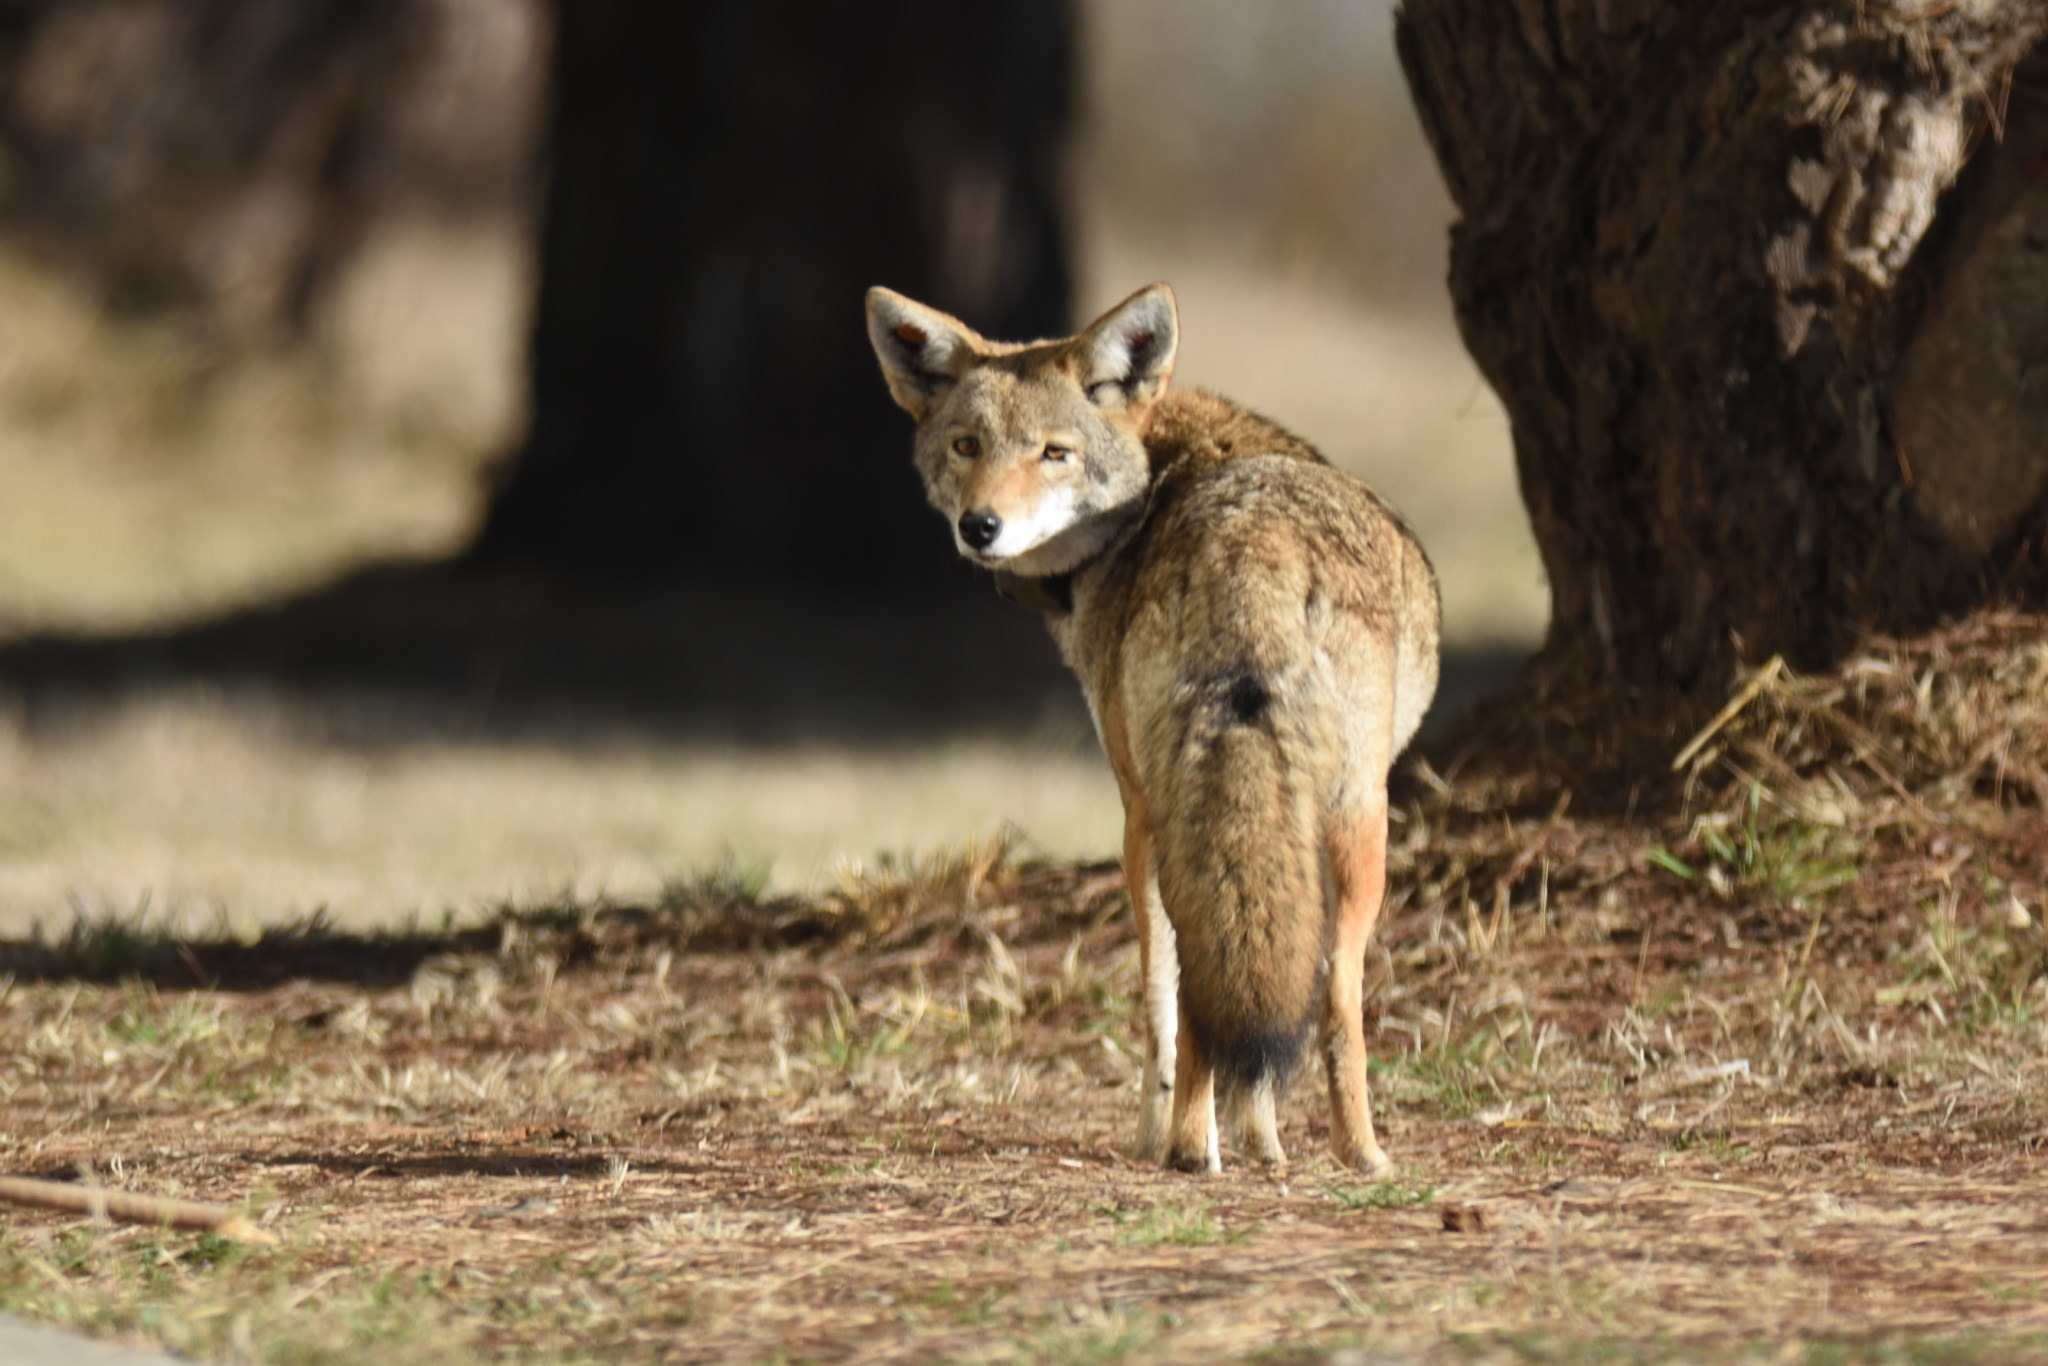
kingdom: Animalia
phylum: Chordata
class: Mammalia
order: Carnivora
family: Canidae
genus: Canis
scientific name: Canis latrans
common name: Coyote
